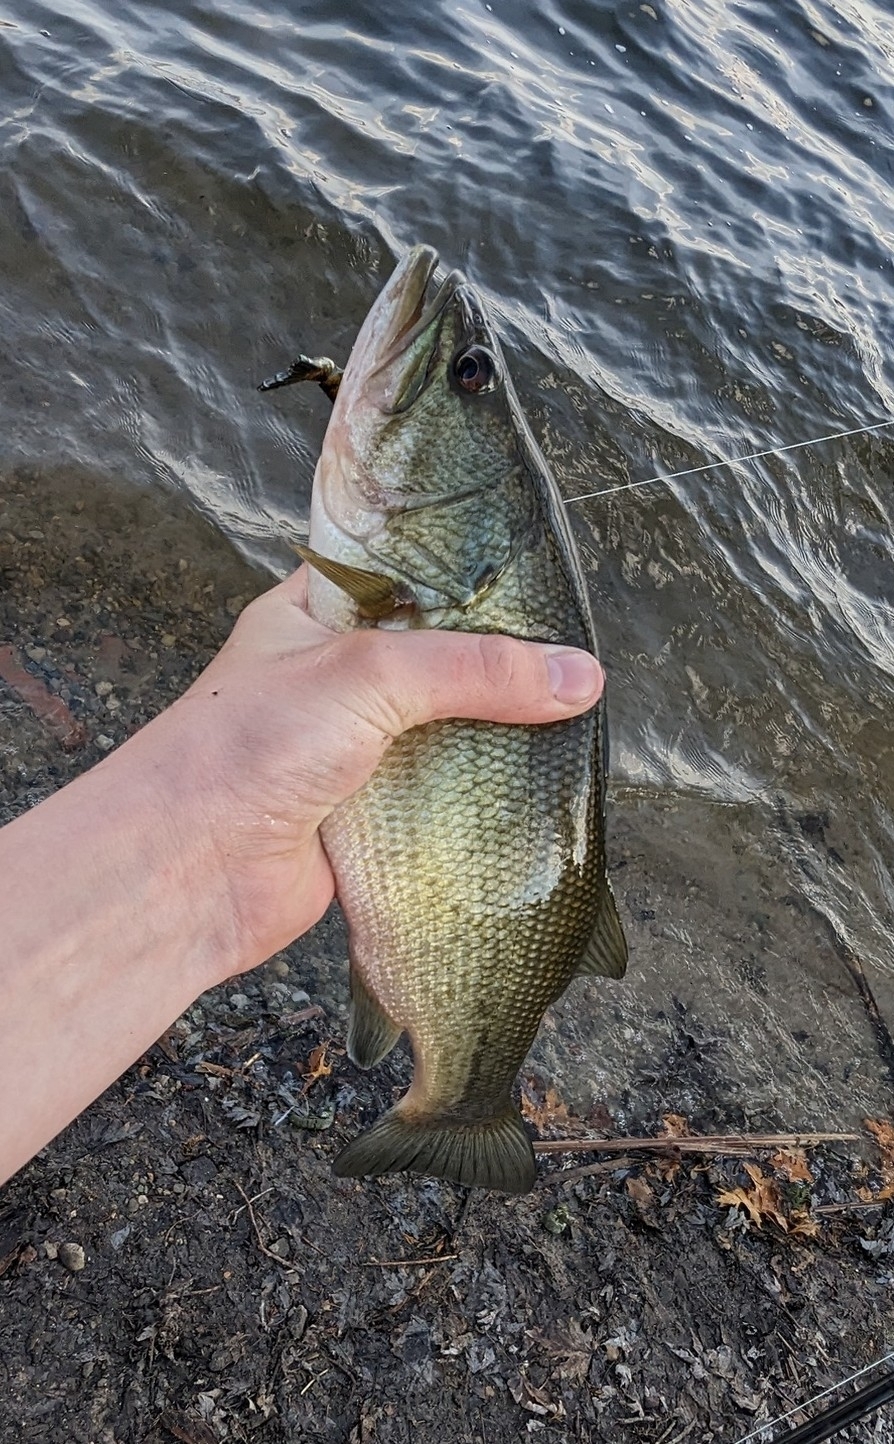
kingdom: Animalia
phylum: Chordata
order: Perciformes
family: Centrarchidae
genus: Micropterus
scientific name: Micropterus
